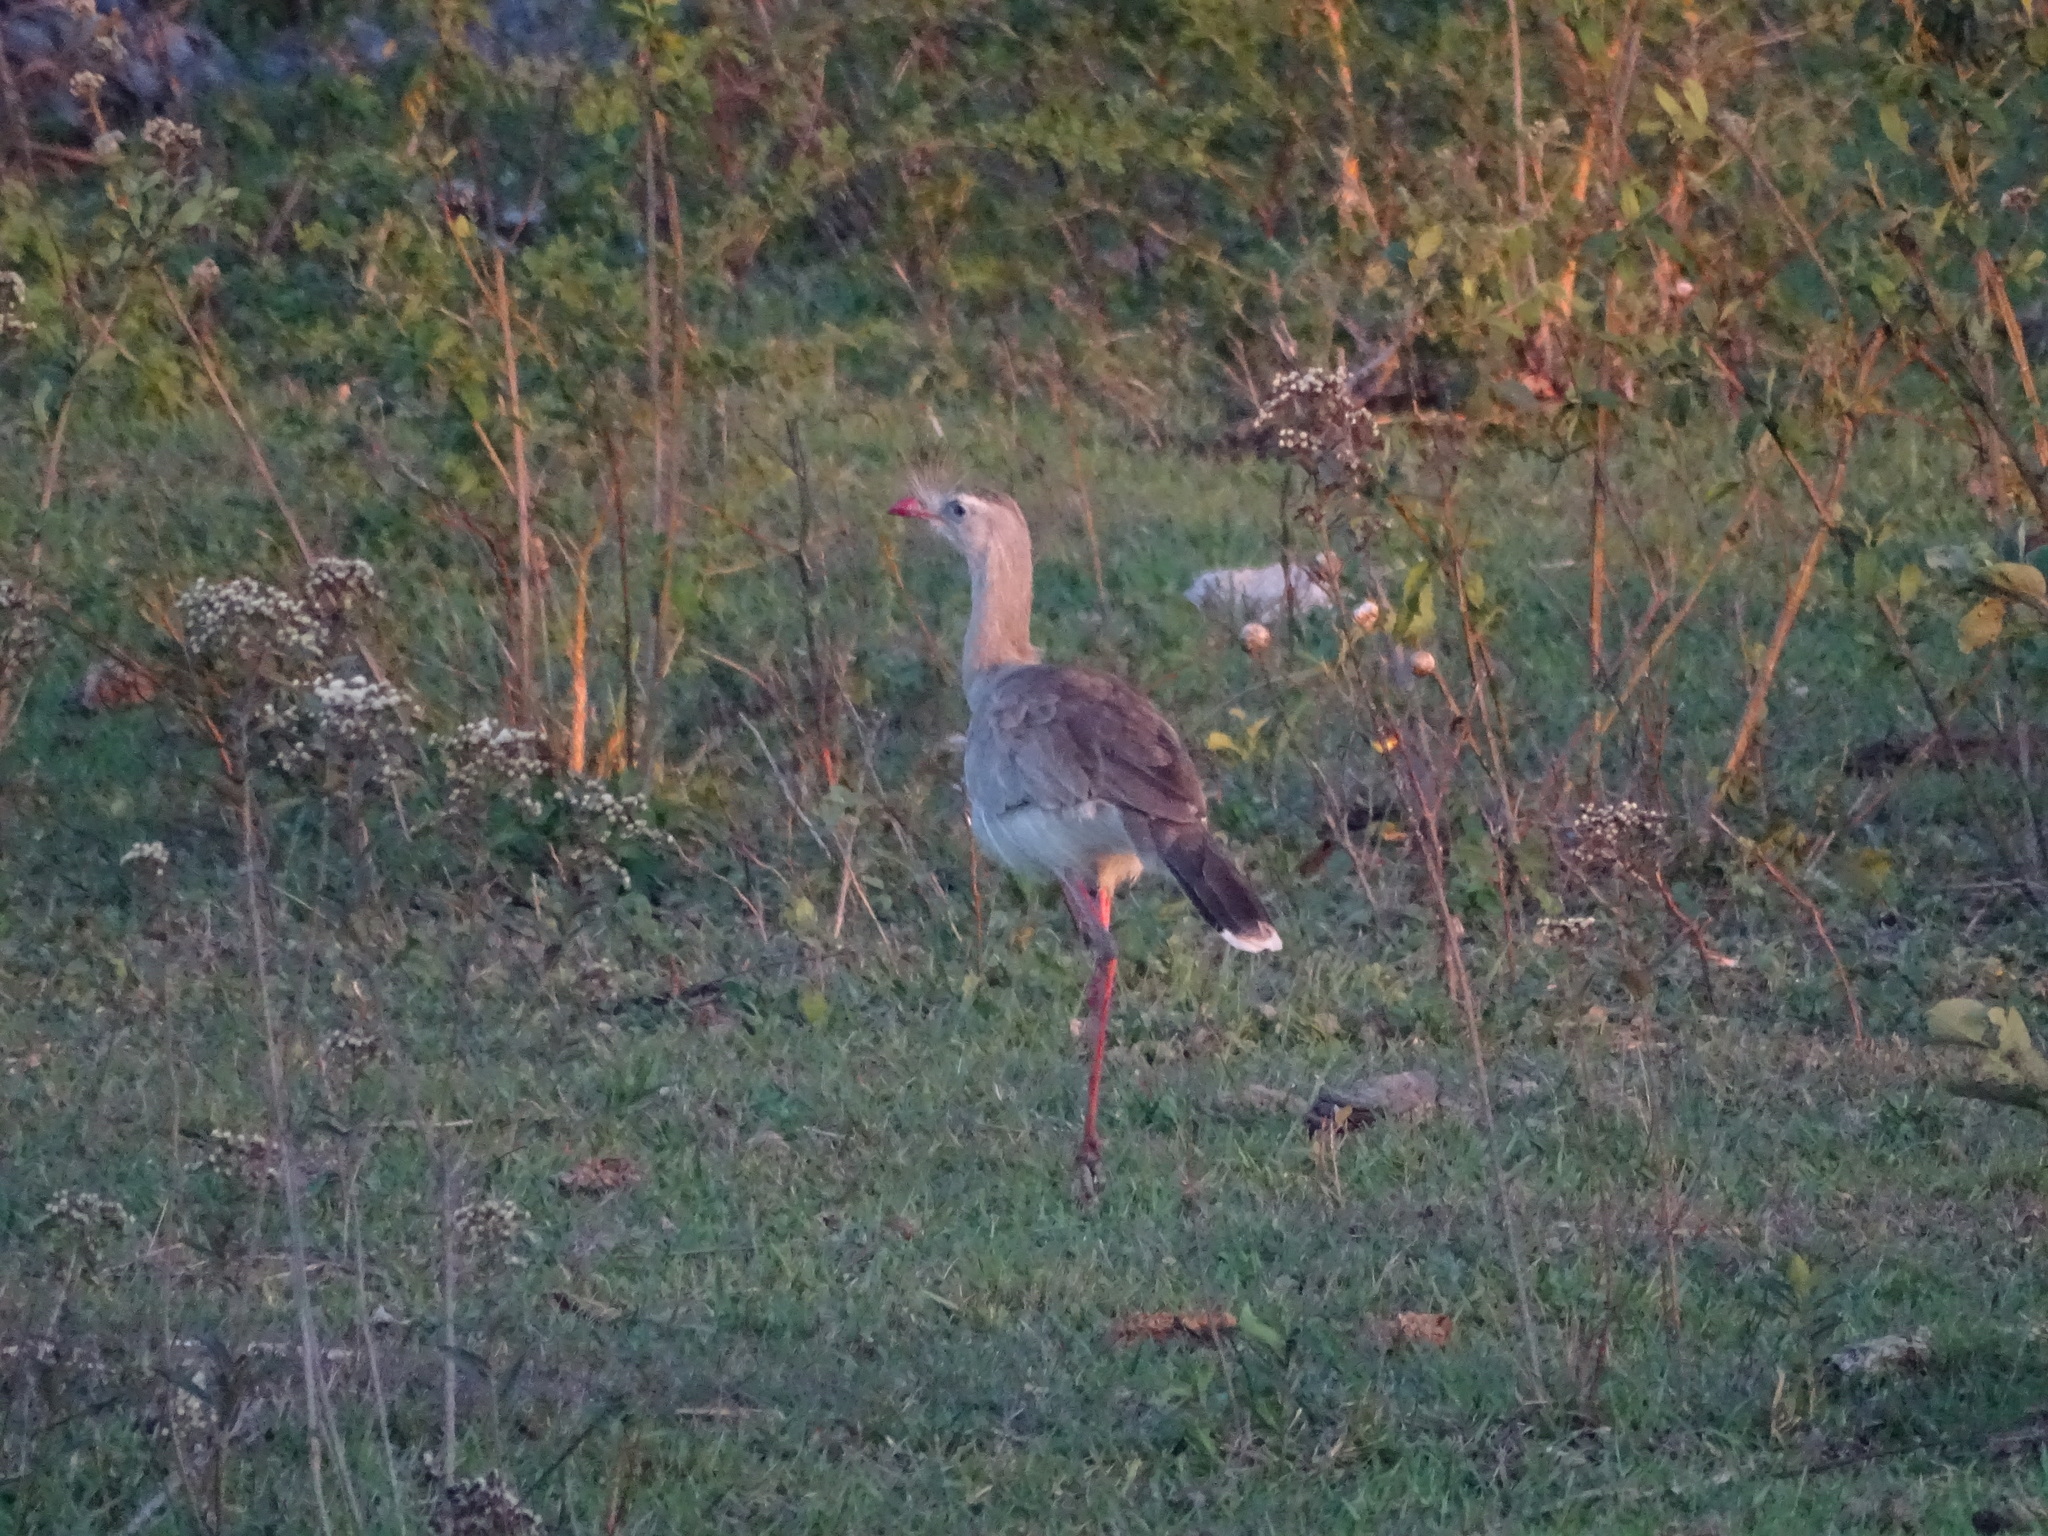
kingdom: Animalia
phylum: Chordata
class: Aves
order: Cariamiformes
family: Cariamidae
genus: Cariama
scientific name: Cariama cristata
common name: Red-legged seriema
